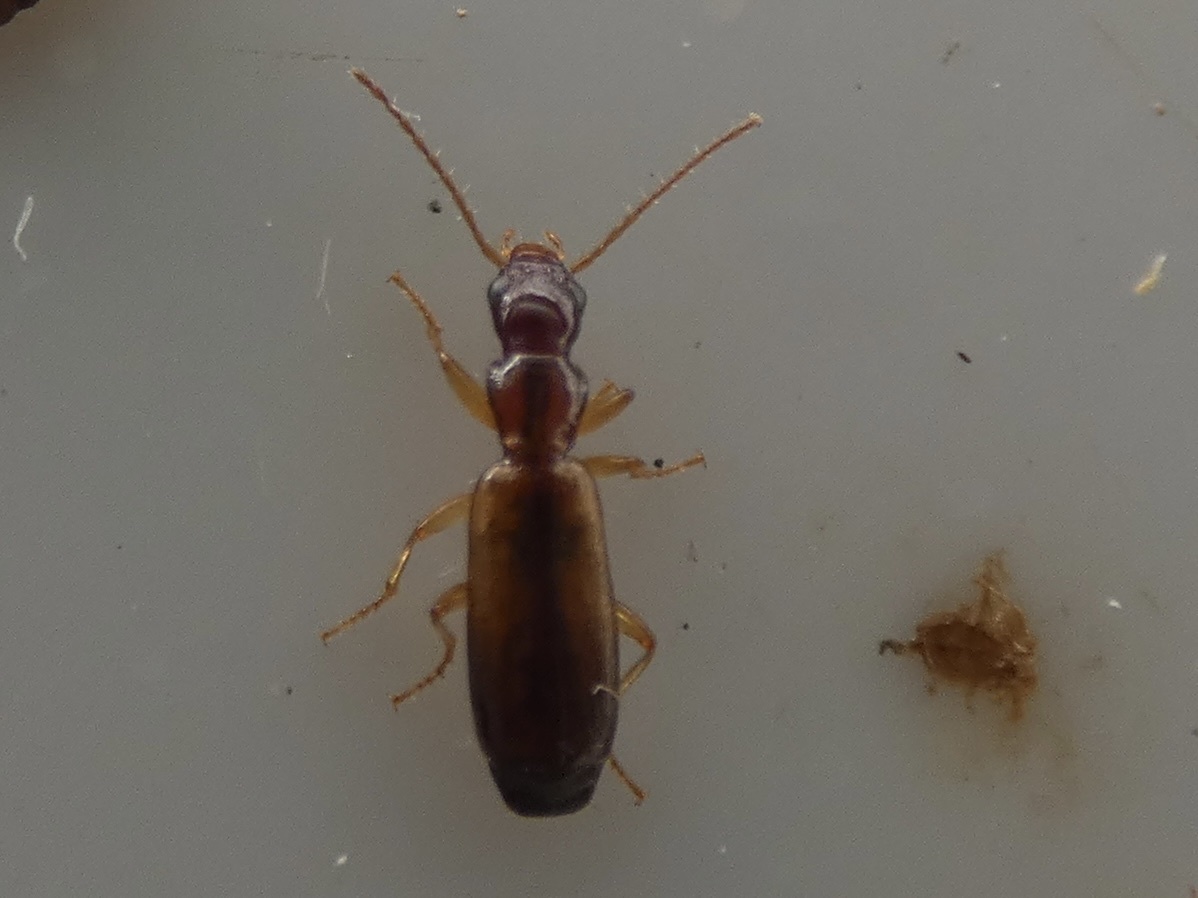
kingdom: Animalia
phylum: Arthropoda
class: Insecta
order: Coleoptera
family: Carabidae
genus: Paradromius
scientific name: Paradromius linearis
